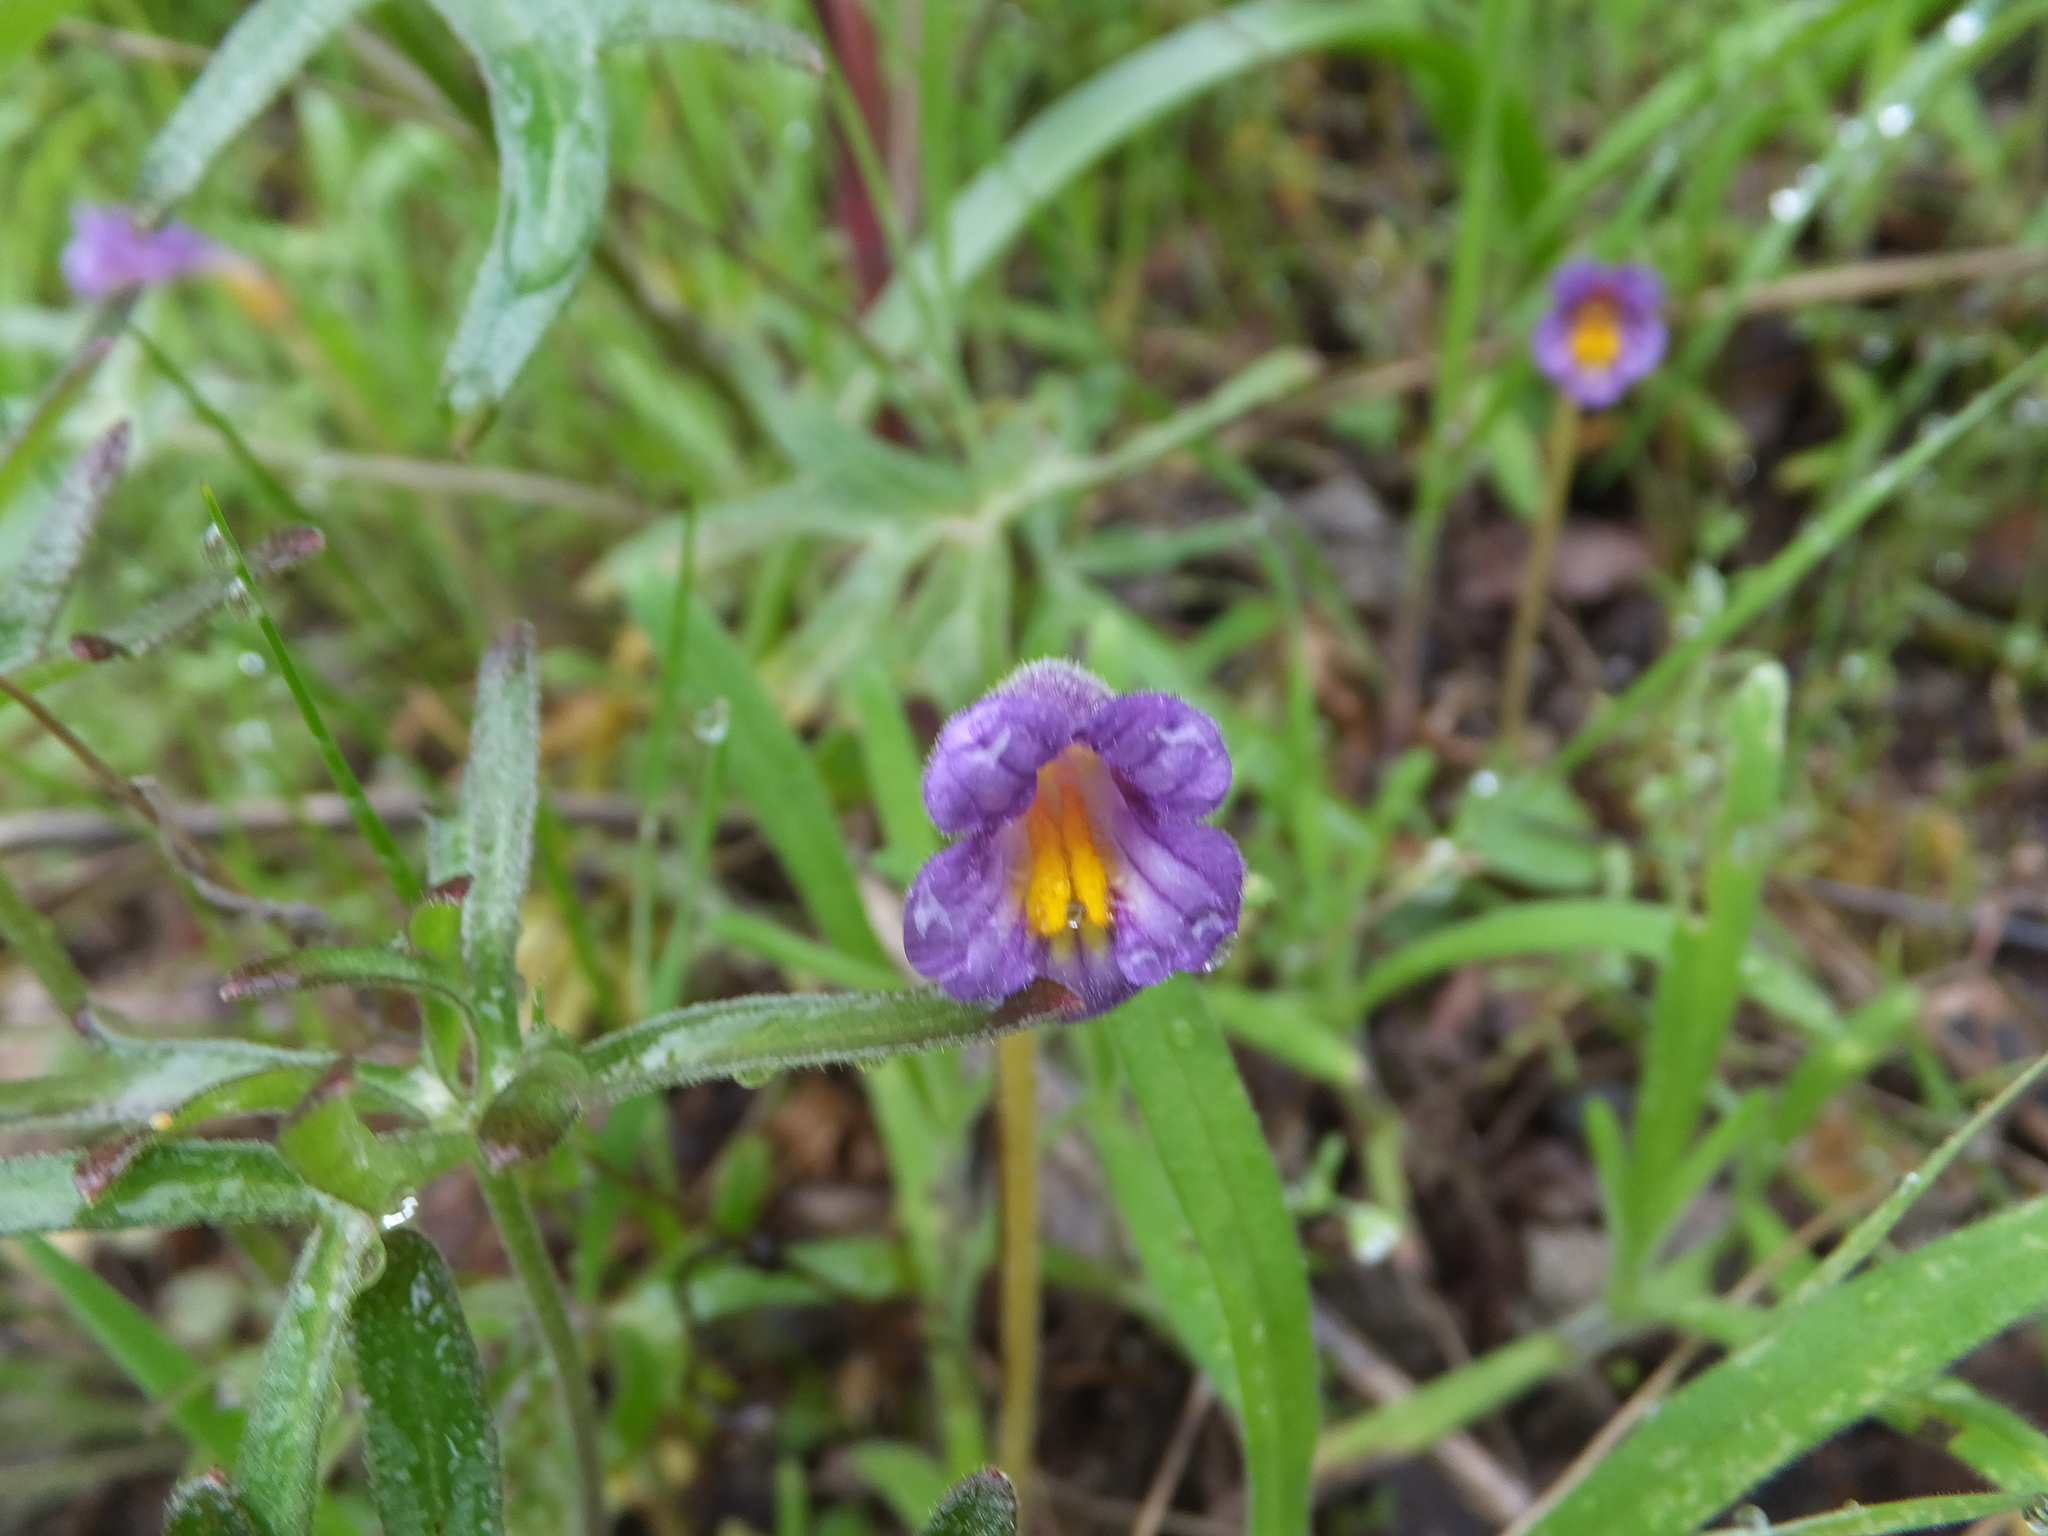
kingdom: Plantae
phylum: Tracheophyta
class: Magnoliopsida
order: Lamiales
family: Orobanchaceae
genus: Aphyllon
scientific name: Aphyllon uniflorum
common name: One-flowered broomrape
